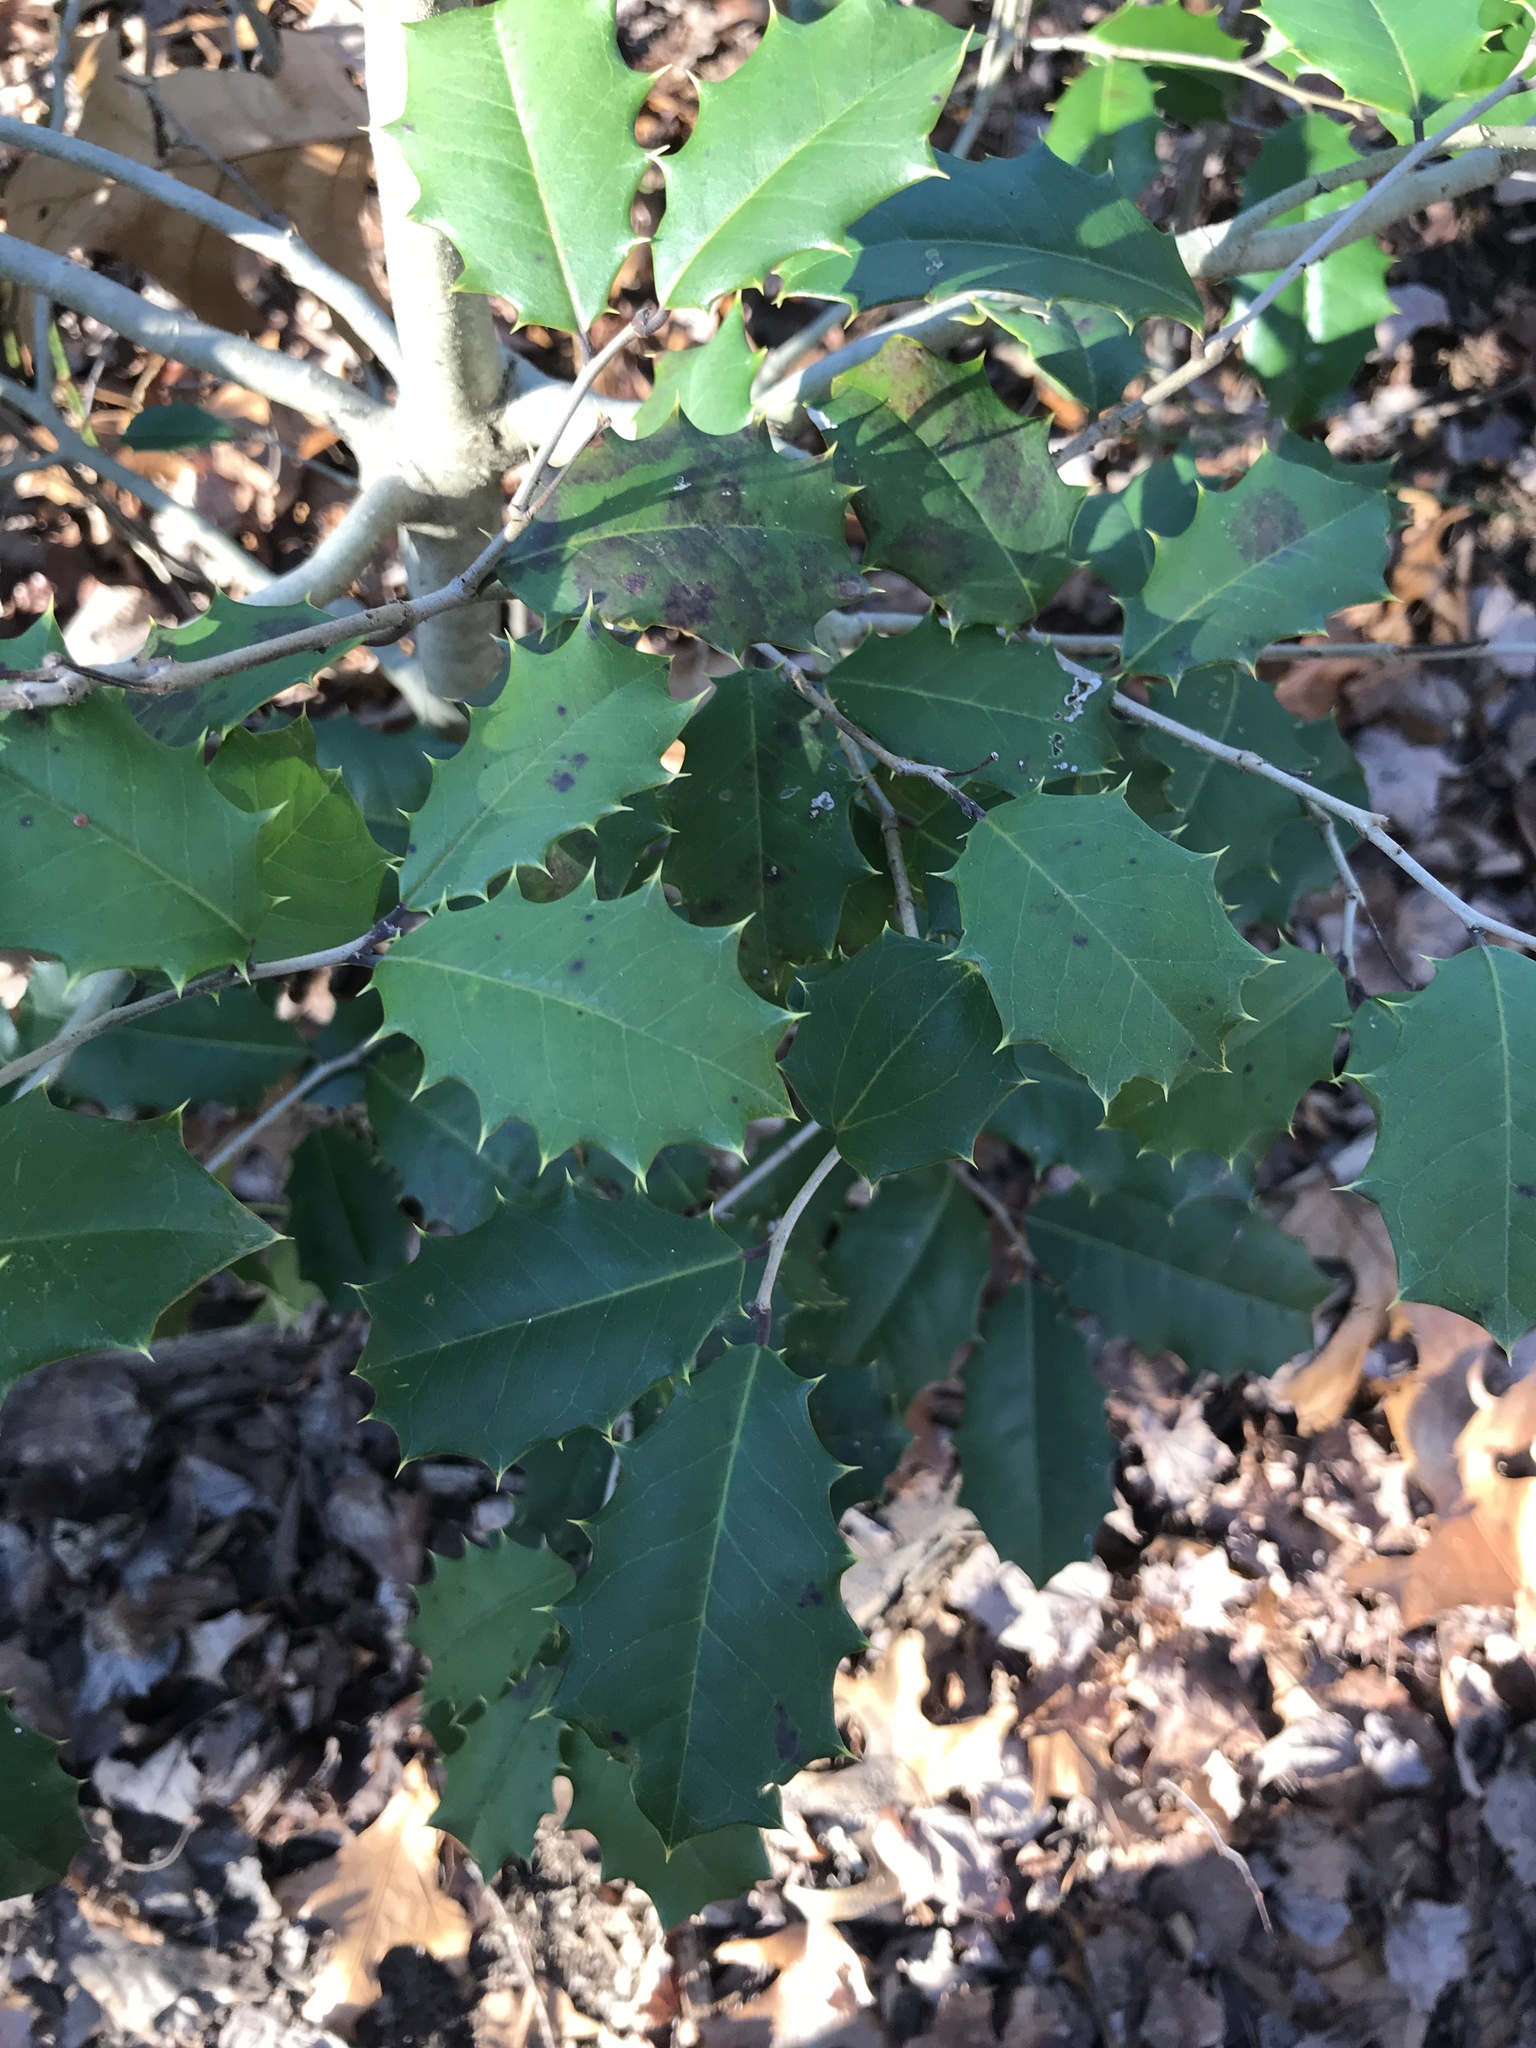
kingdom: Plantae
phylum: Tracheophyta
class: Magnoliopsida
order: Aquifoliales
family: Aquifoliaceae
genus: Ilex
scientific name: Ilex opaca
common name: American holly
